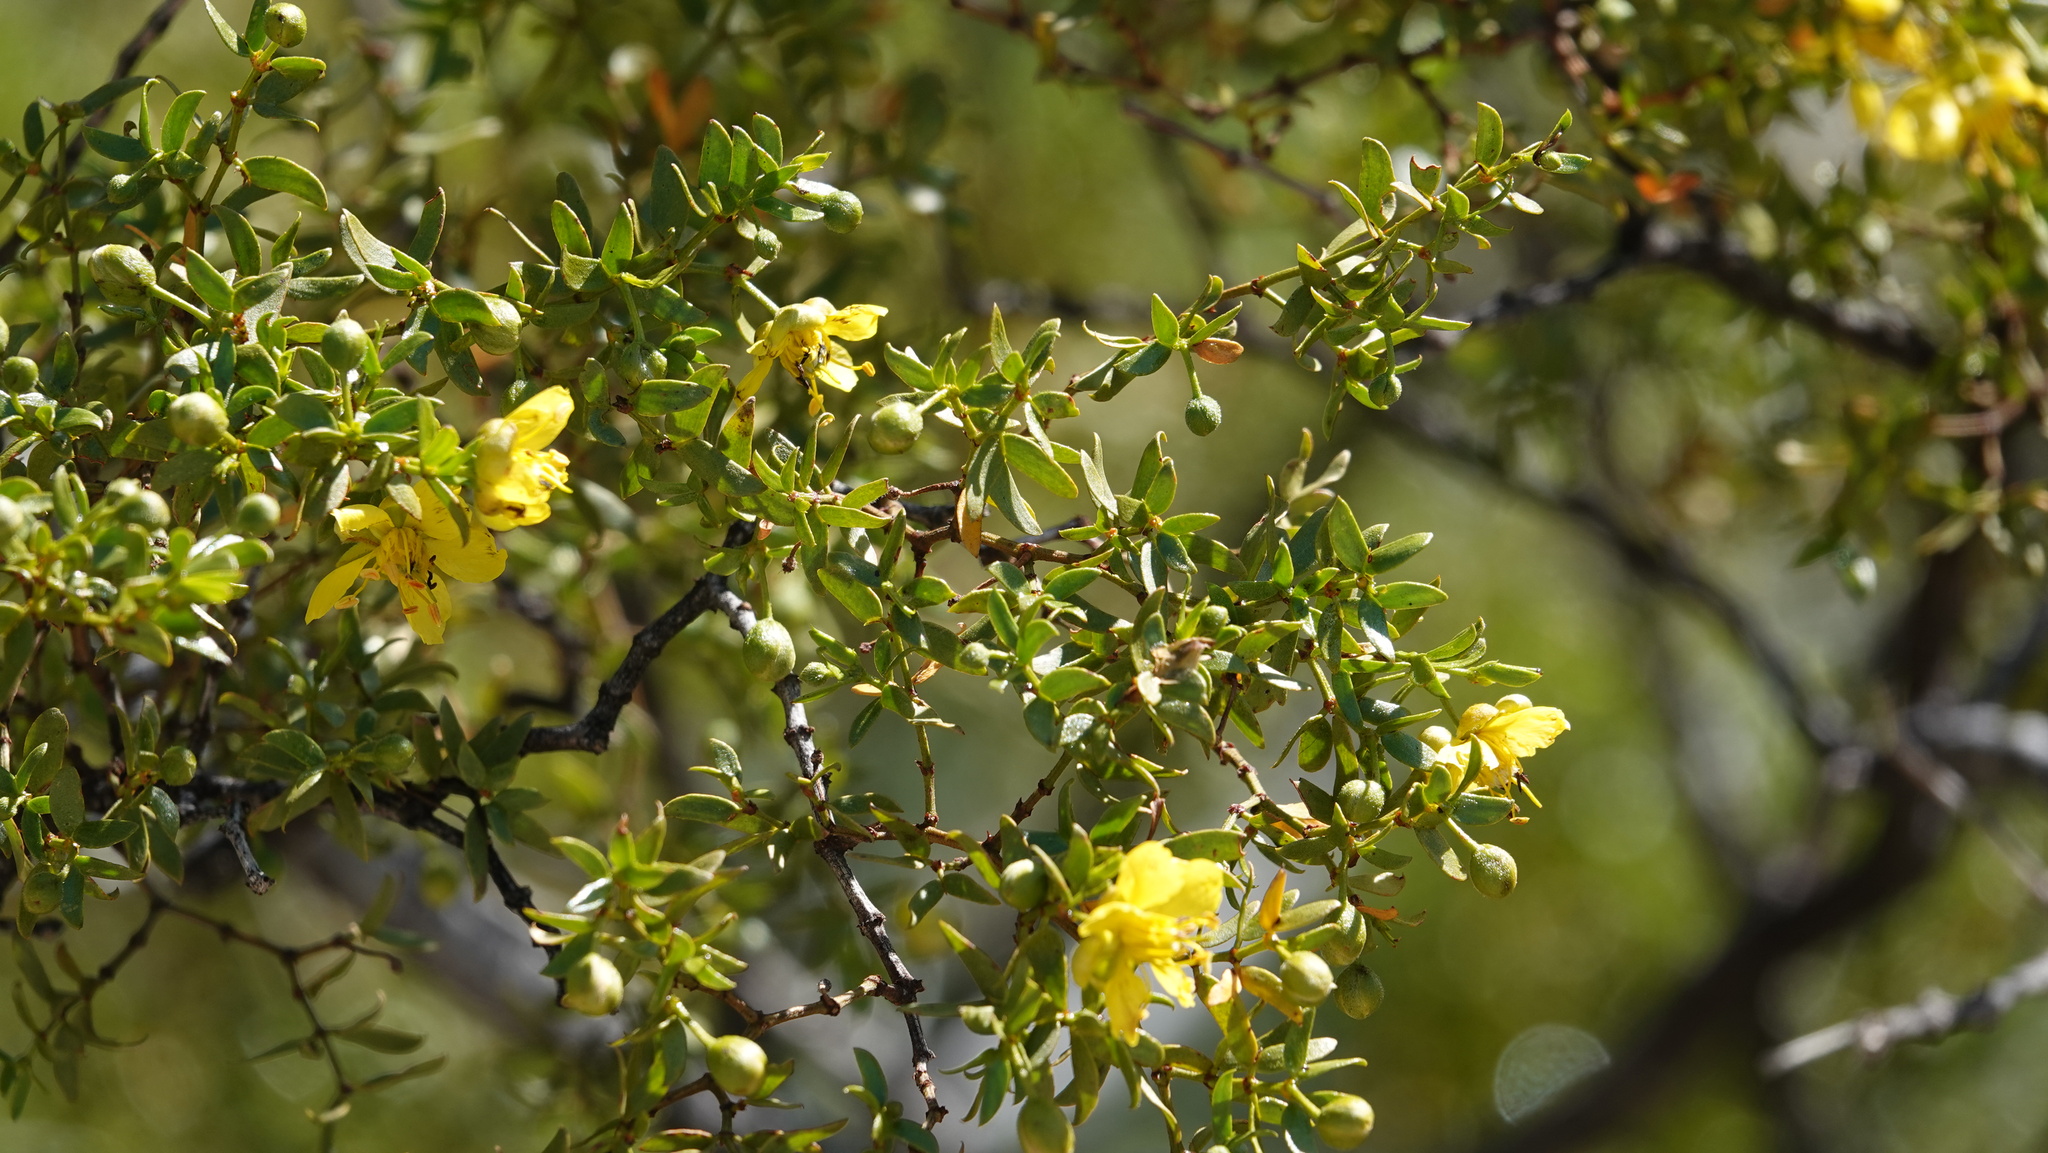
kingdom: Plantae
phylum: Tracheophyta
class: Magnoliopsida
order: Zygophyllales
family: Zygophyllaceae
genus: Larrea
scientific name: Larrea tridentata
